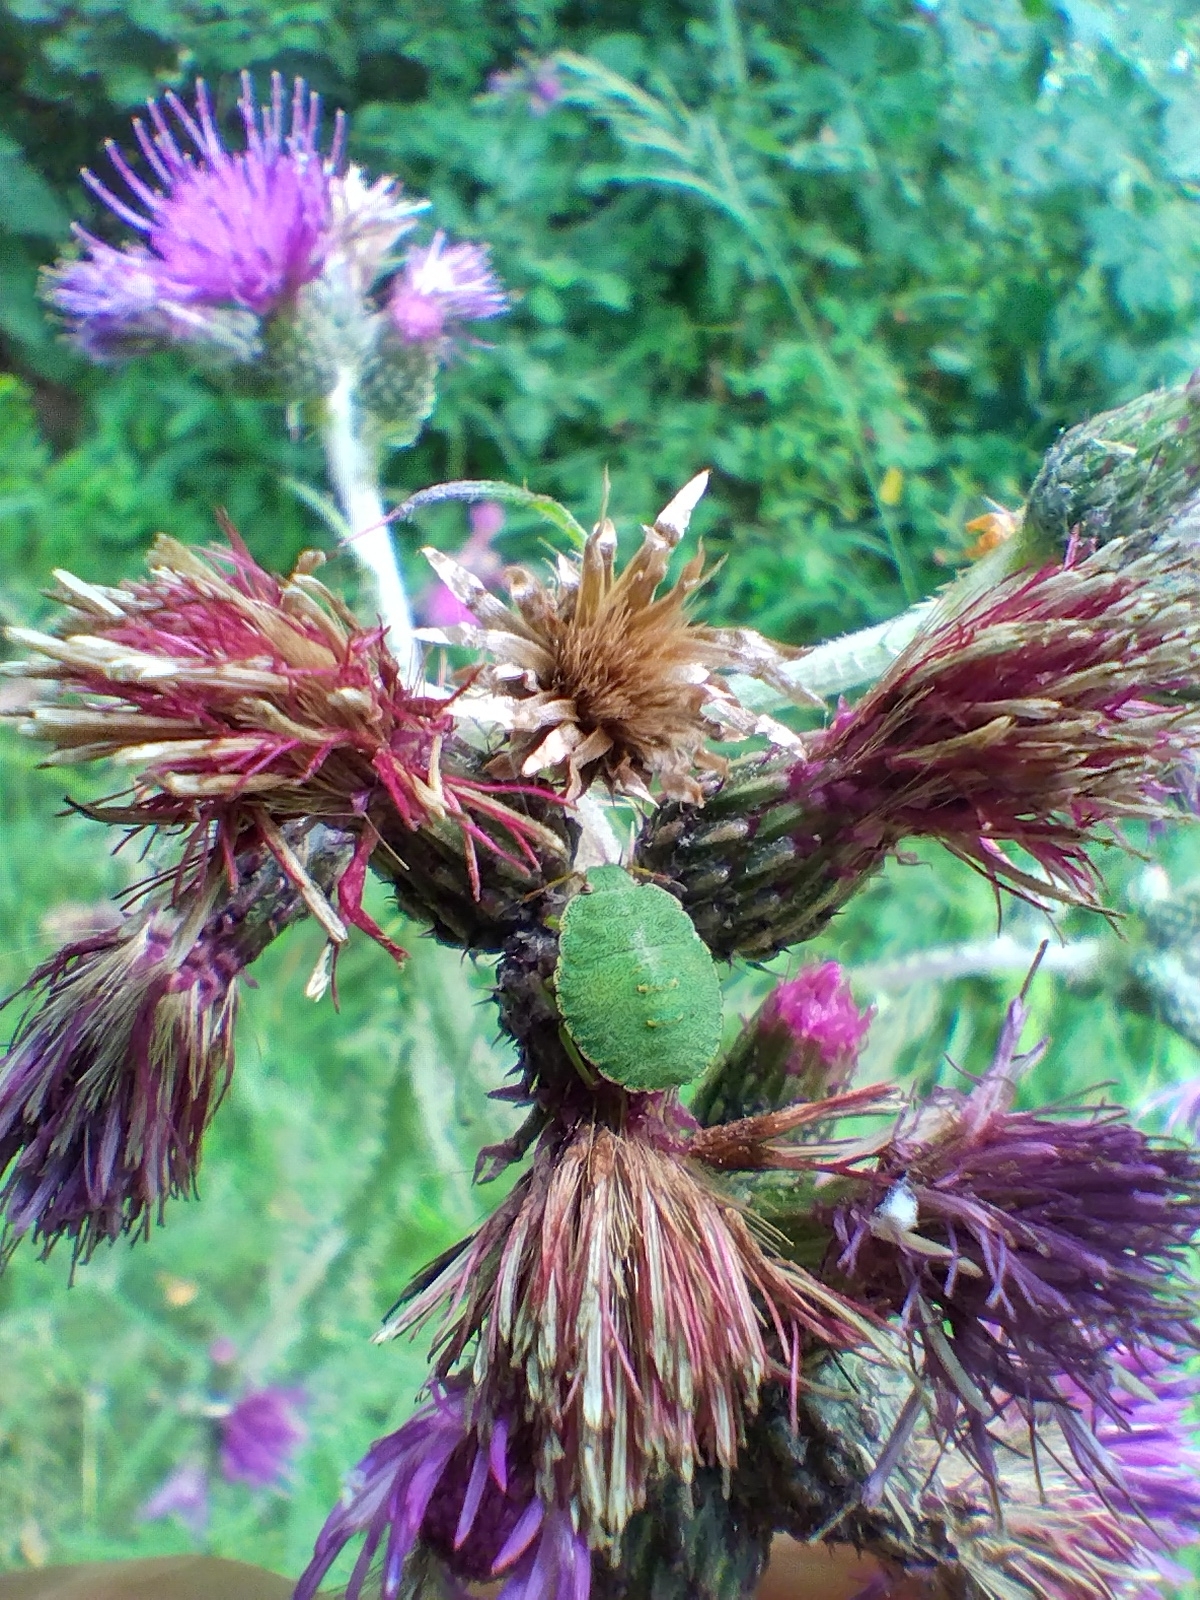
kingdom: Animalia
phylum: Arthropoda
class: Insecta
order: Hemiptera
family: Pentatomidae
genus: Palomena
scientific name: Palomena prasina
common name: Green shieldbug
